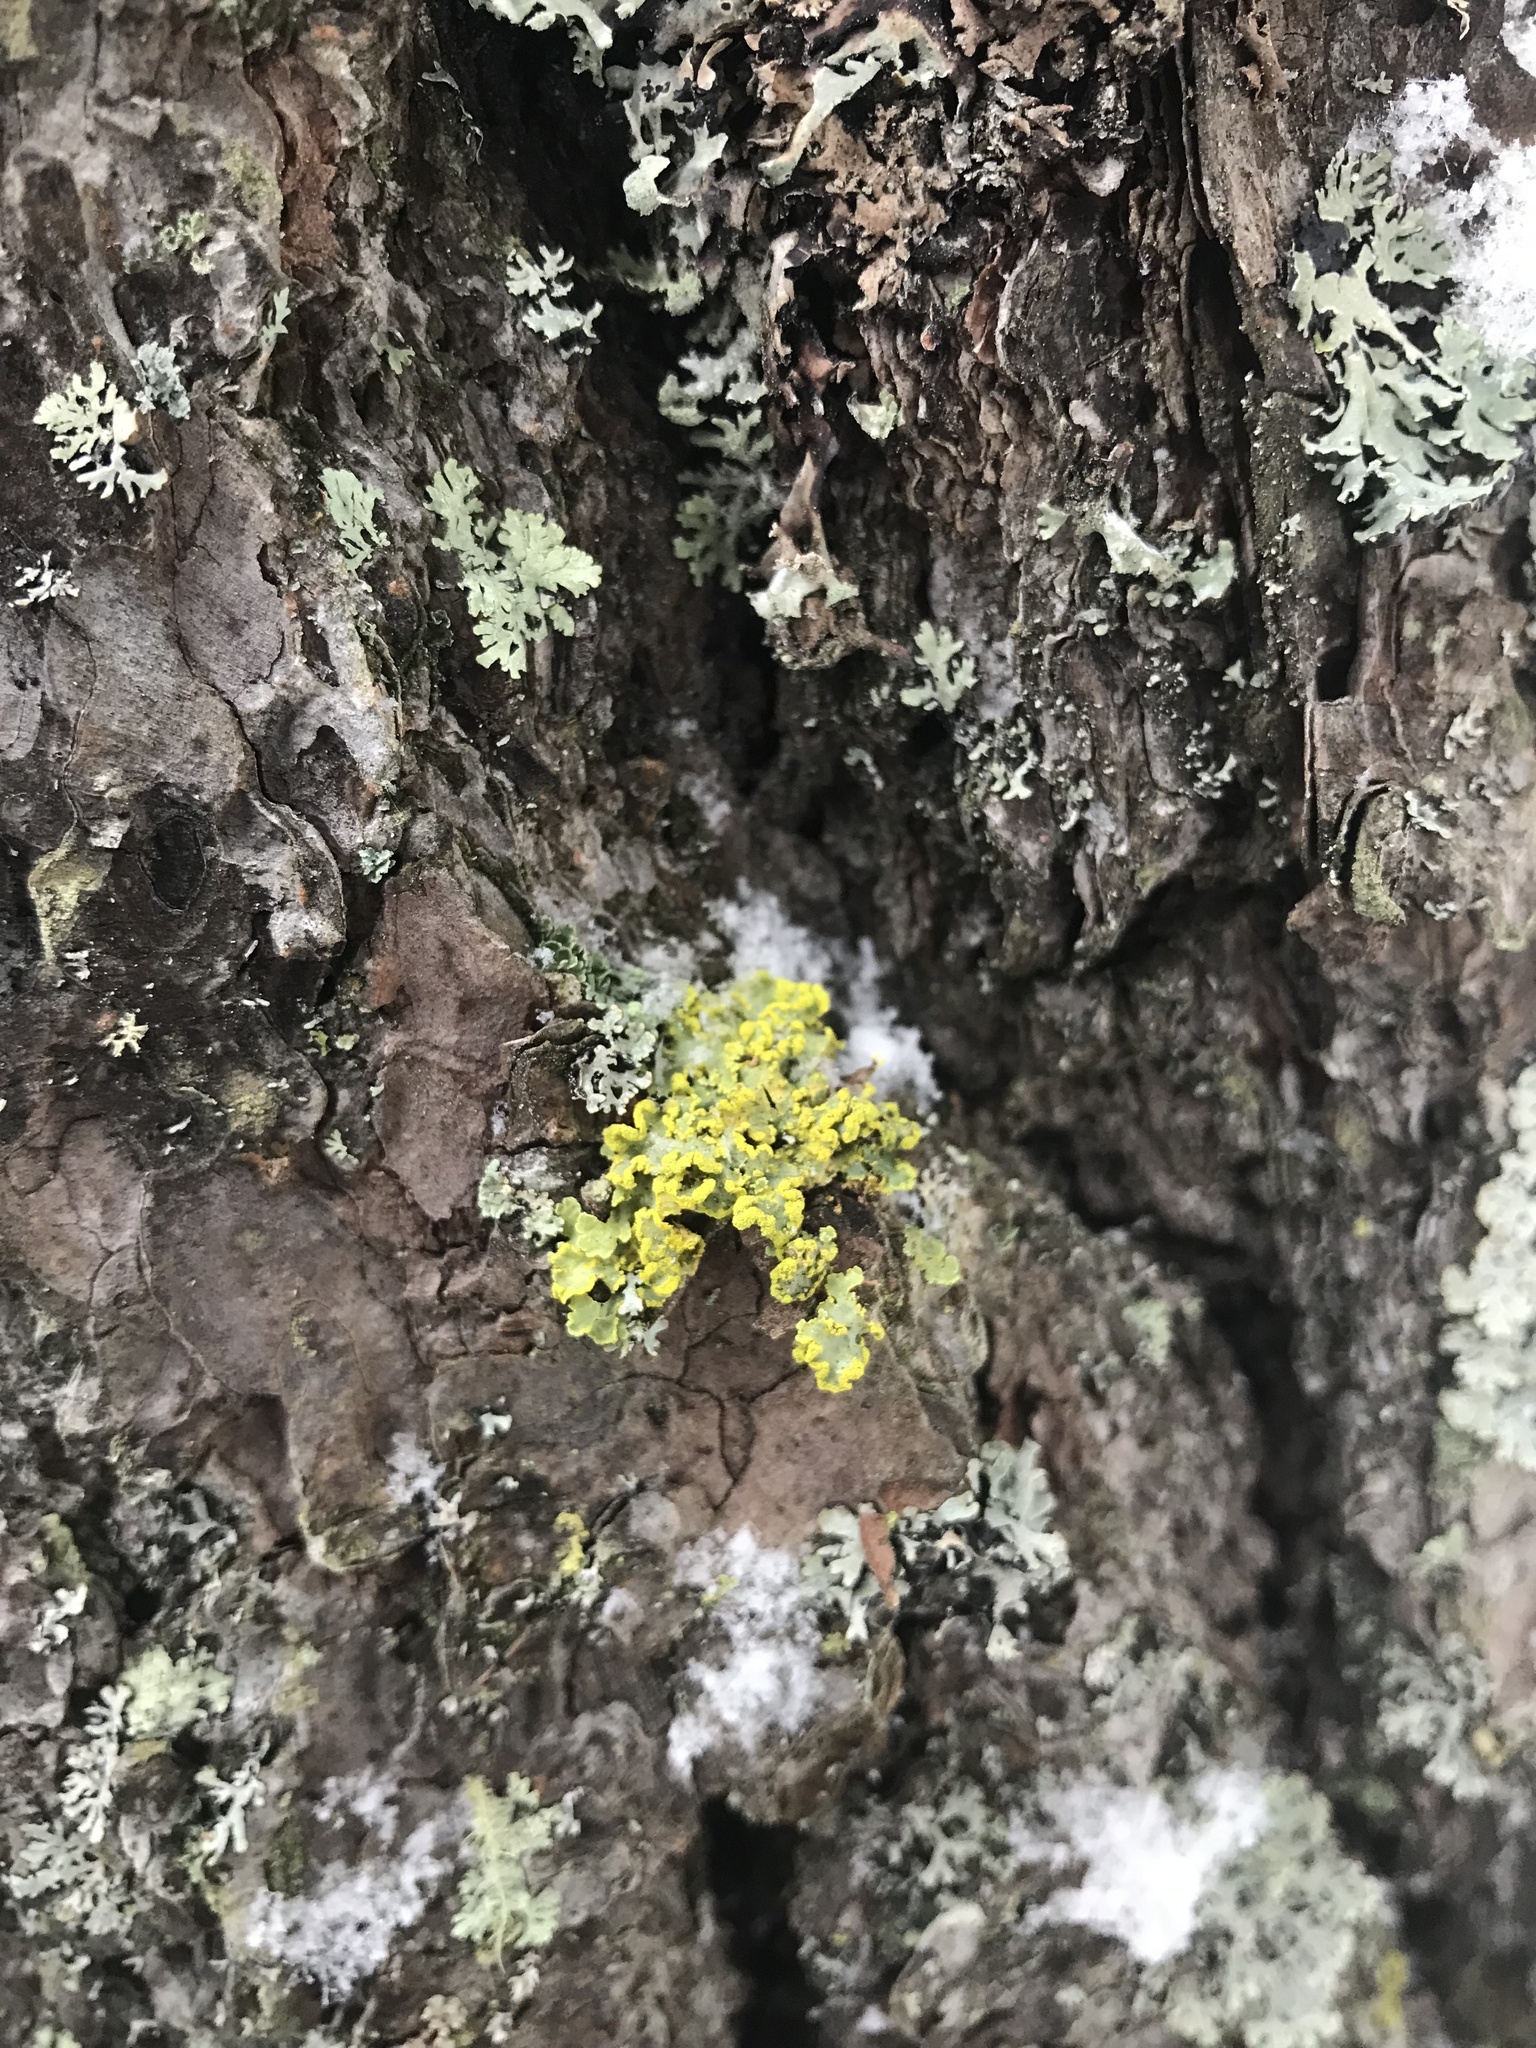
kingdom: Fungi
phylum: Ascomycota
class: Lecanoromycetes
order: Lecanorales
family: Parmeliaceae
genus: Vulpicida
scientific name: Vulpicida pinastri
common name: Powdered sunshine lichen
